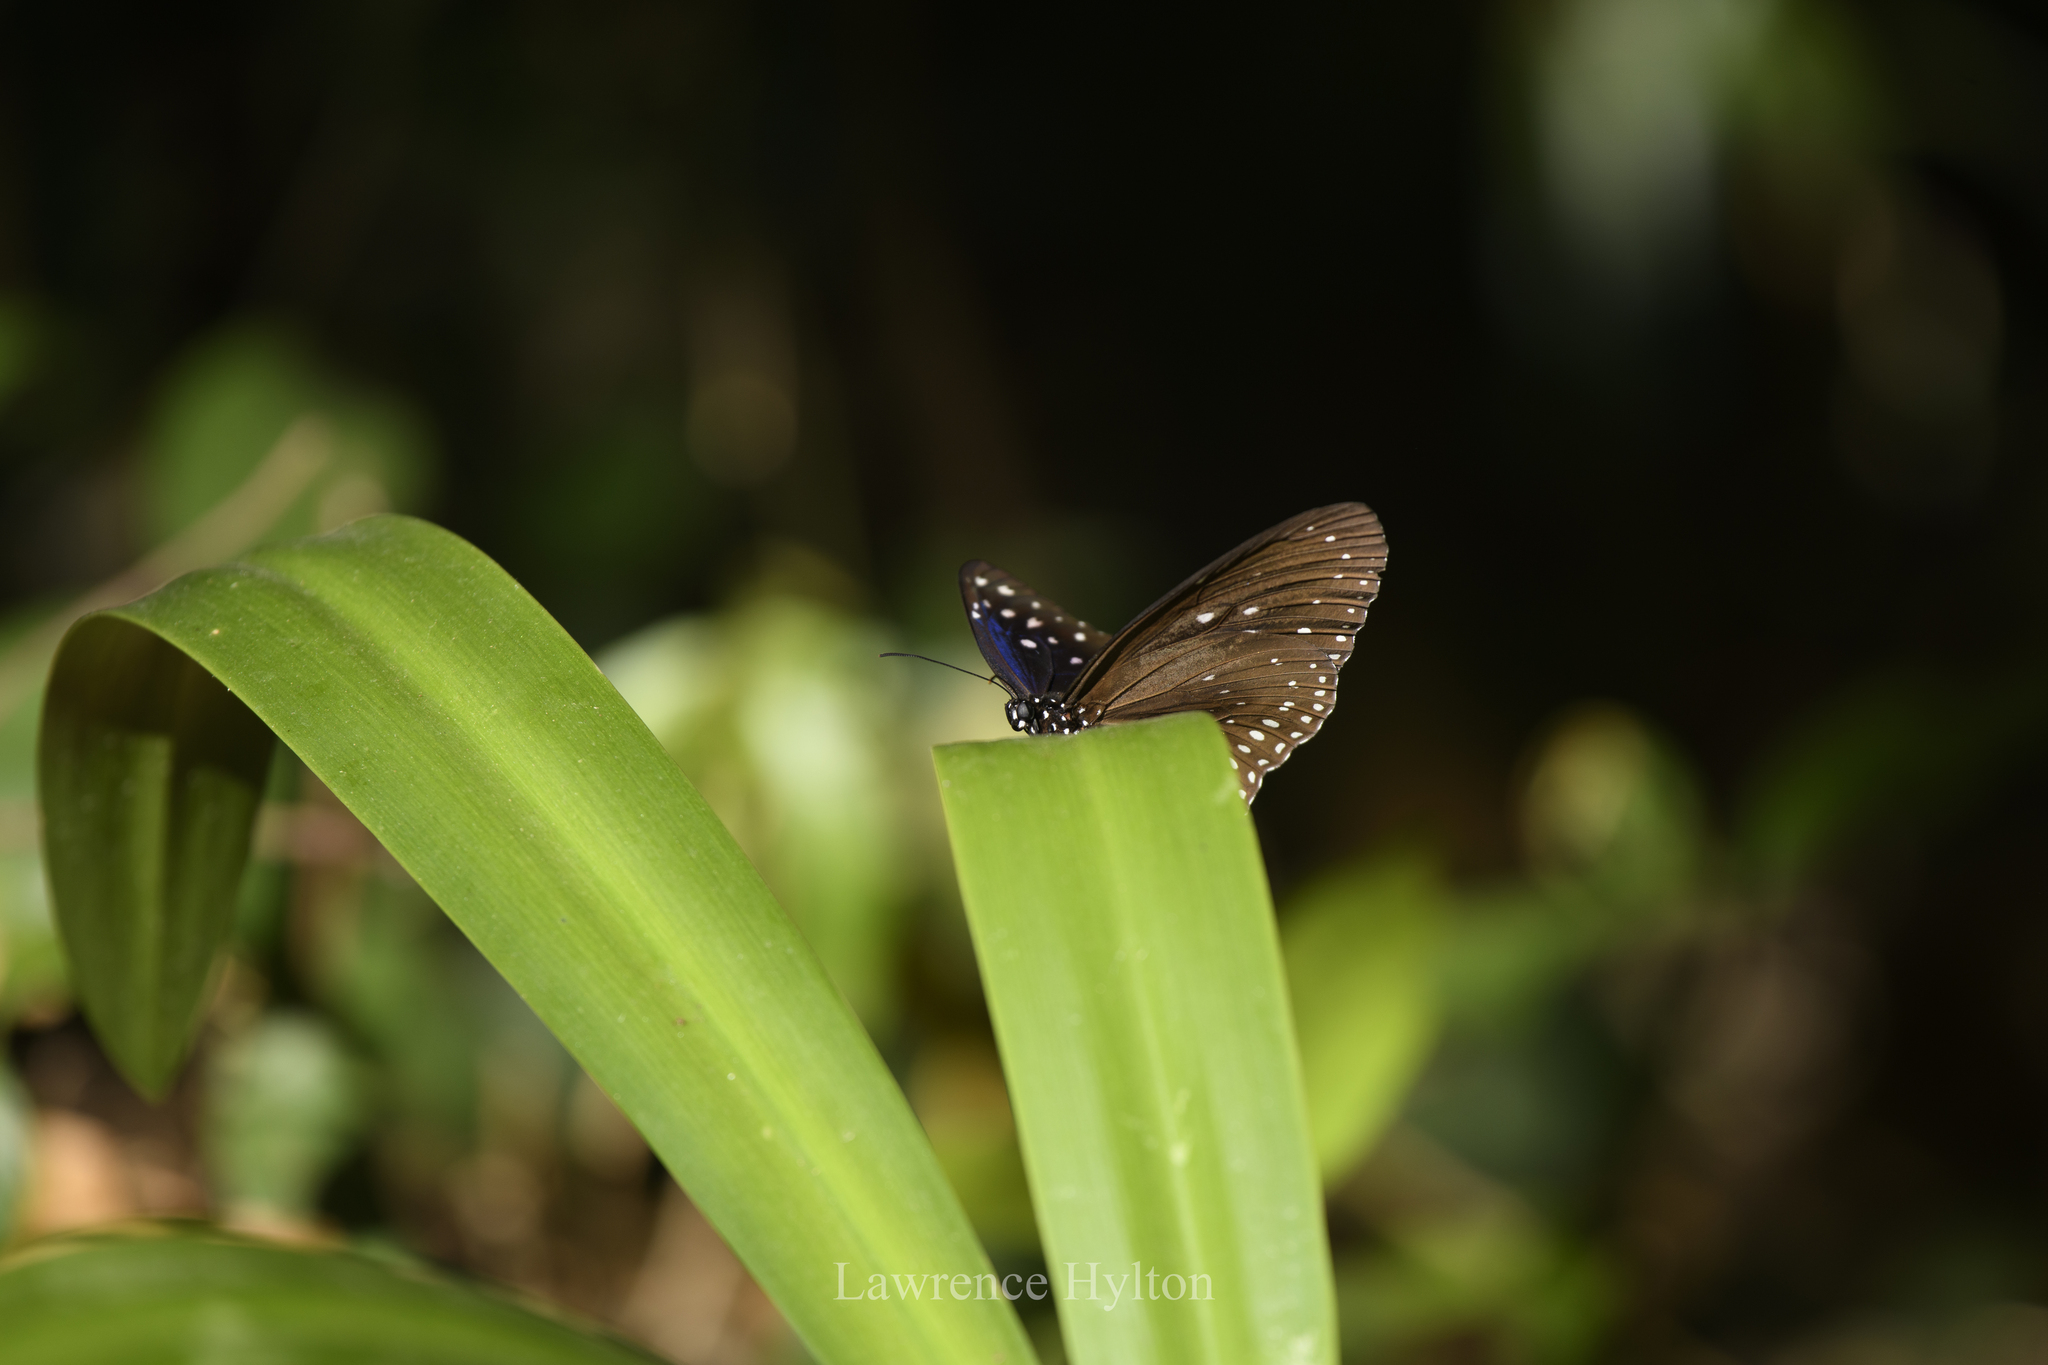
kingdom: Animalia
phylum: Arthropoda
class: Insecta
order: Lepidoptera
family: Nymphalidae
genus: Euploea
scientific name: Euploea midamus
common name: Blue-spotted crow butterfly
